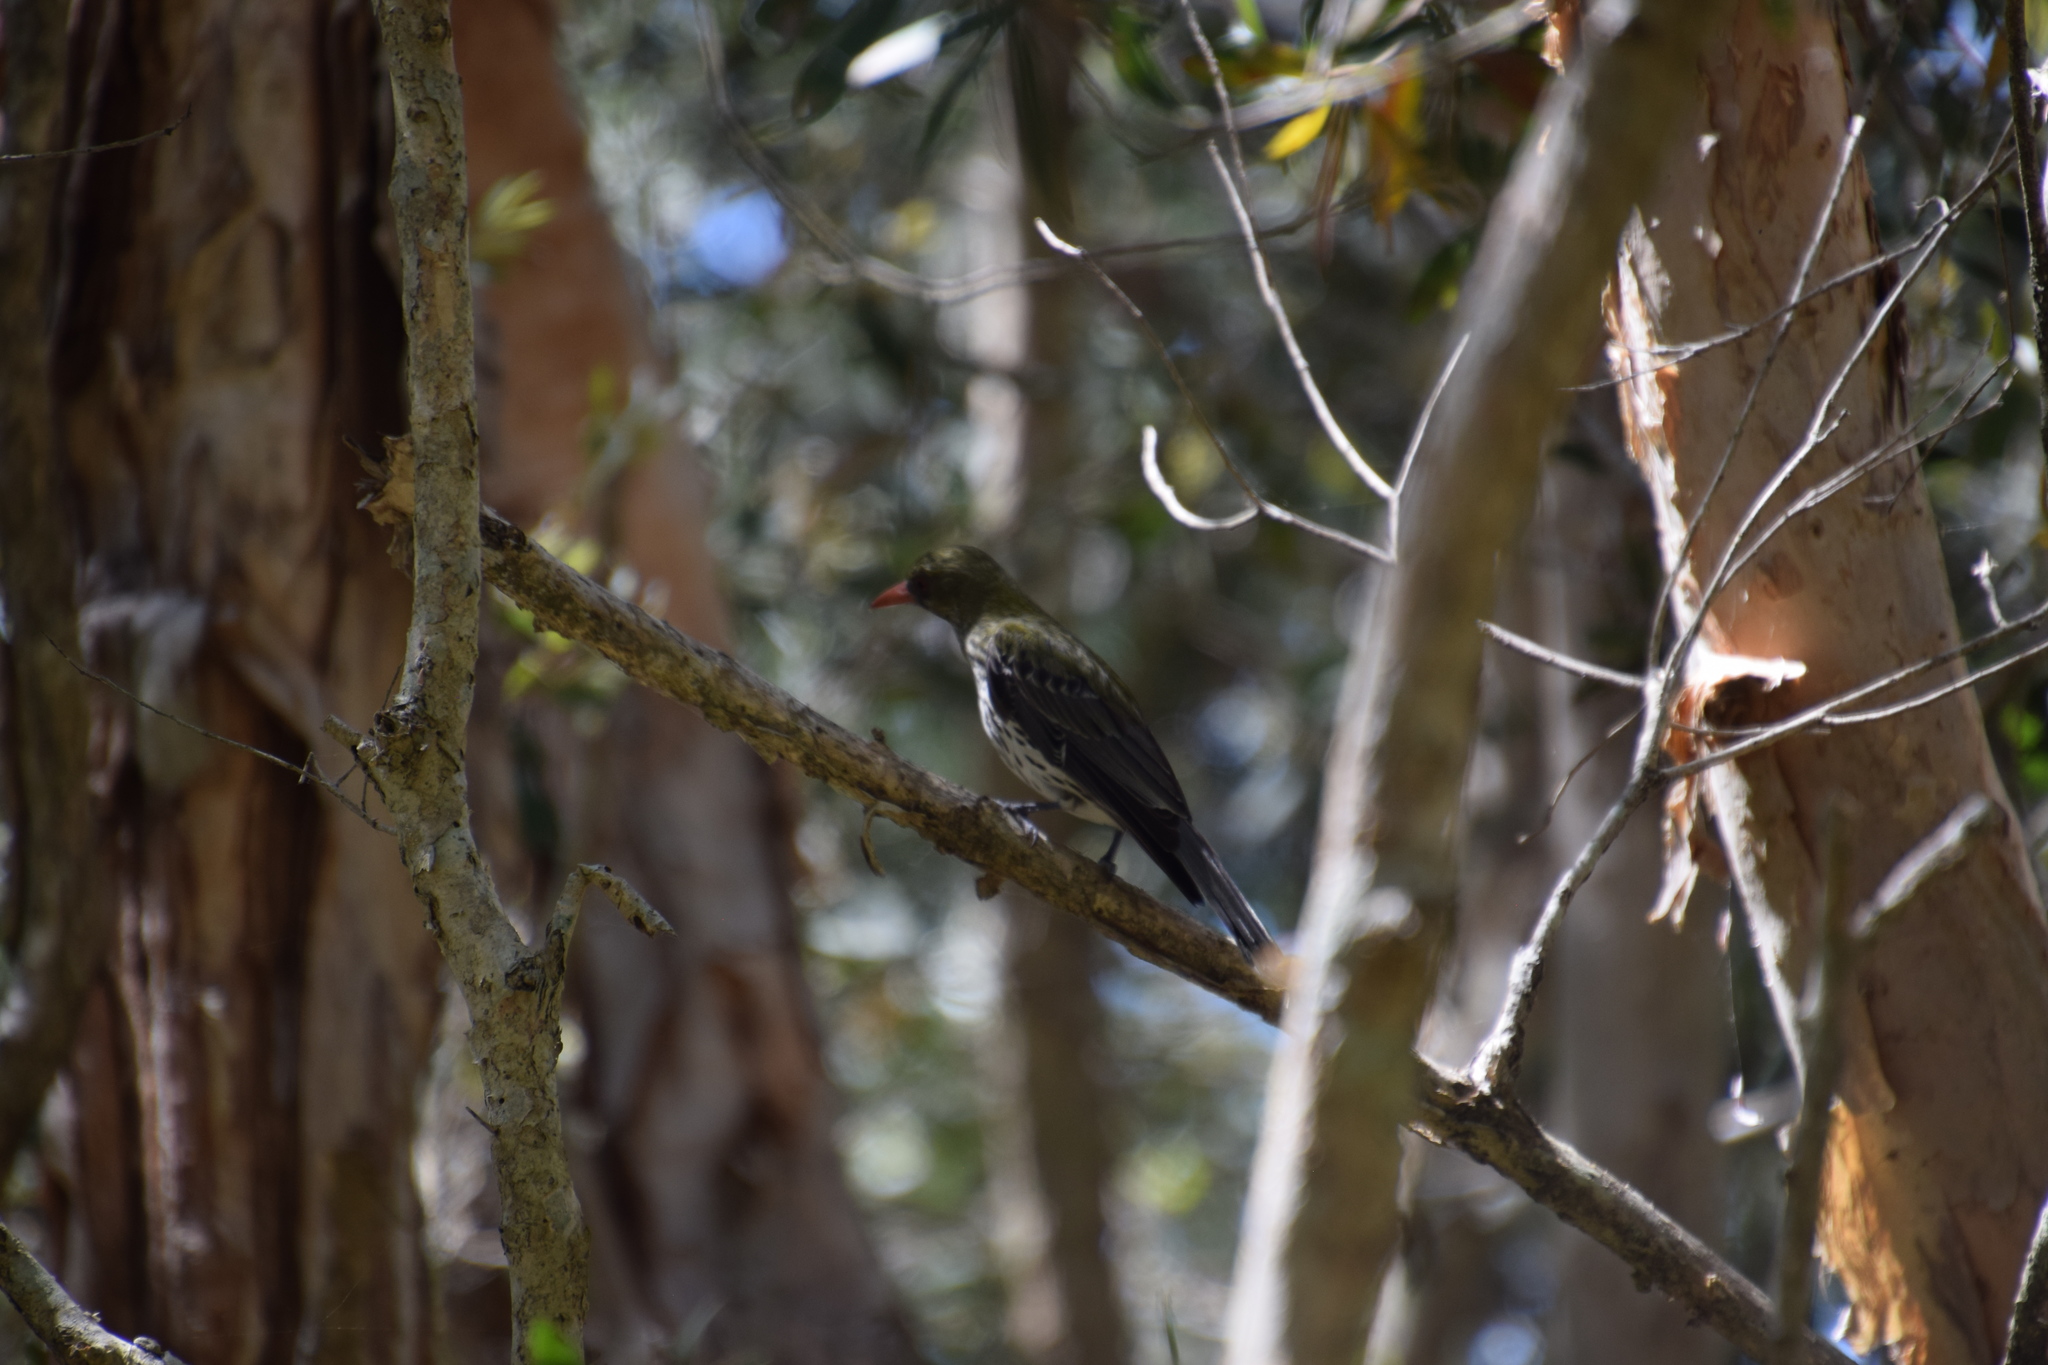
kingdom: Animalia
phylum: Chordata
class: Aves
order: Passeriformes
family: Oriolidae
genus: Oriolus
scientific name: Oriolus sagittatus
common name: Olive-backed oriole
